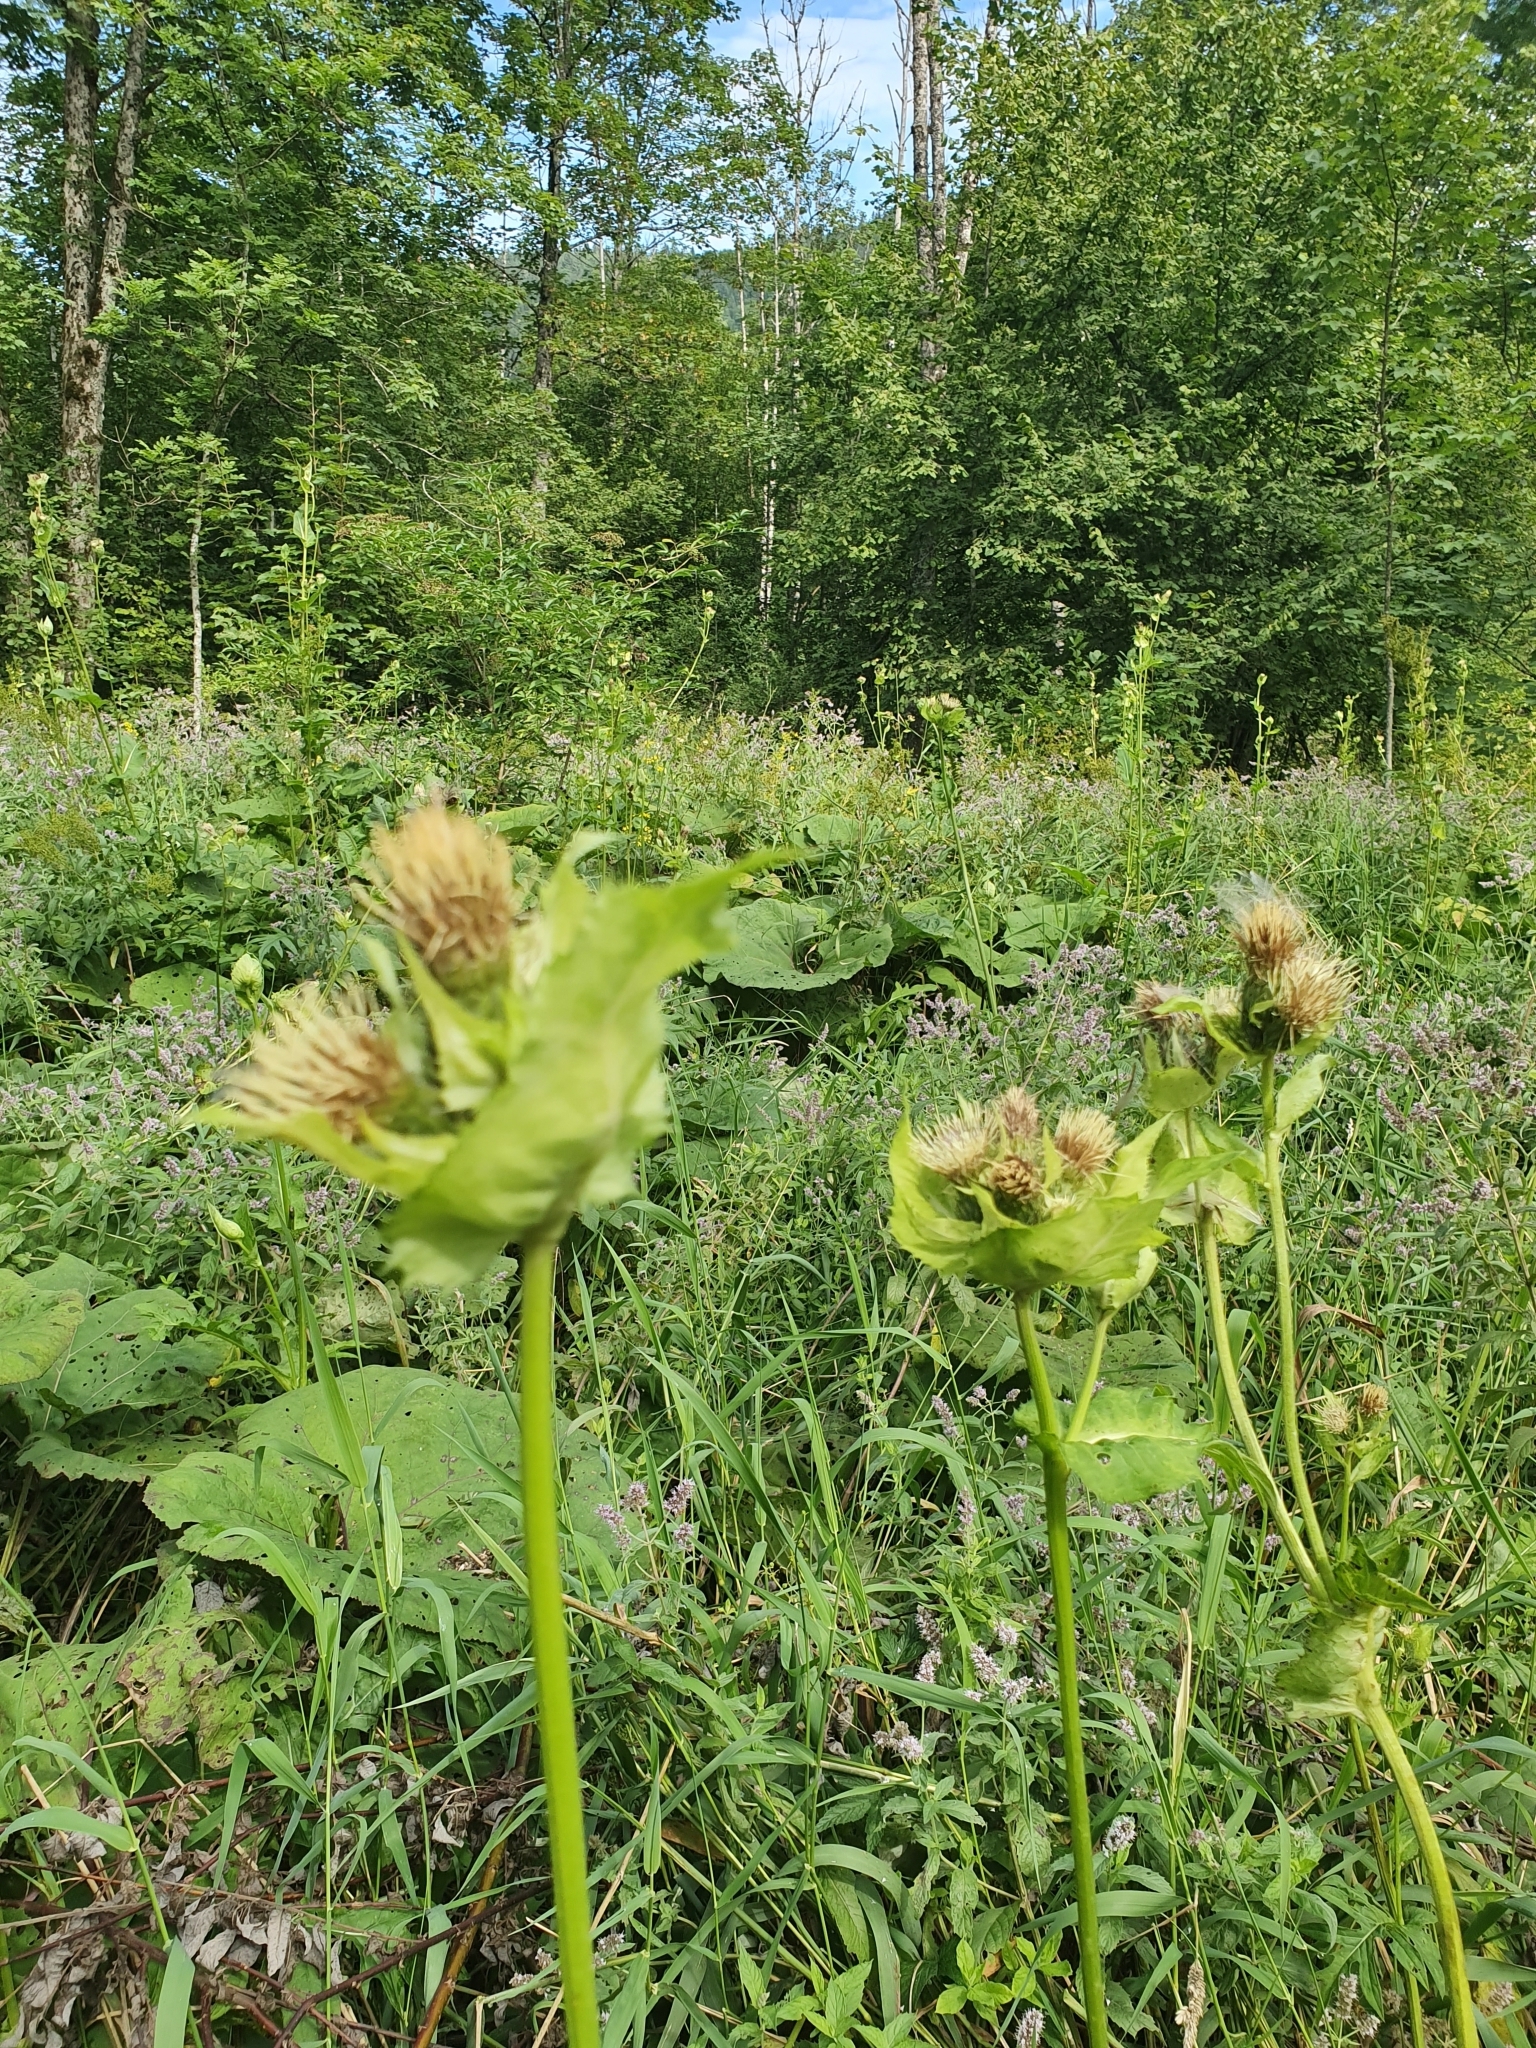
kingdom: Plantae
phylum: Tracheophyta
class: Magnoliopsida
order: Asterales
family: Asteraceae
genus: Cirsium
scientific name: Cirsium oleraceum
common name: Cabbage thistle
